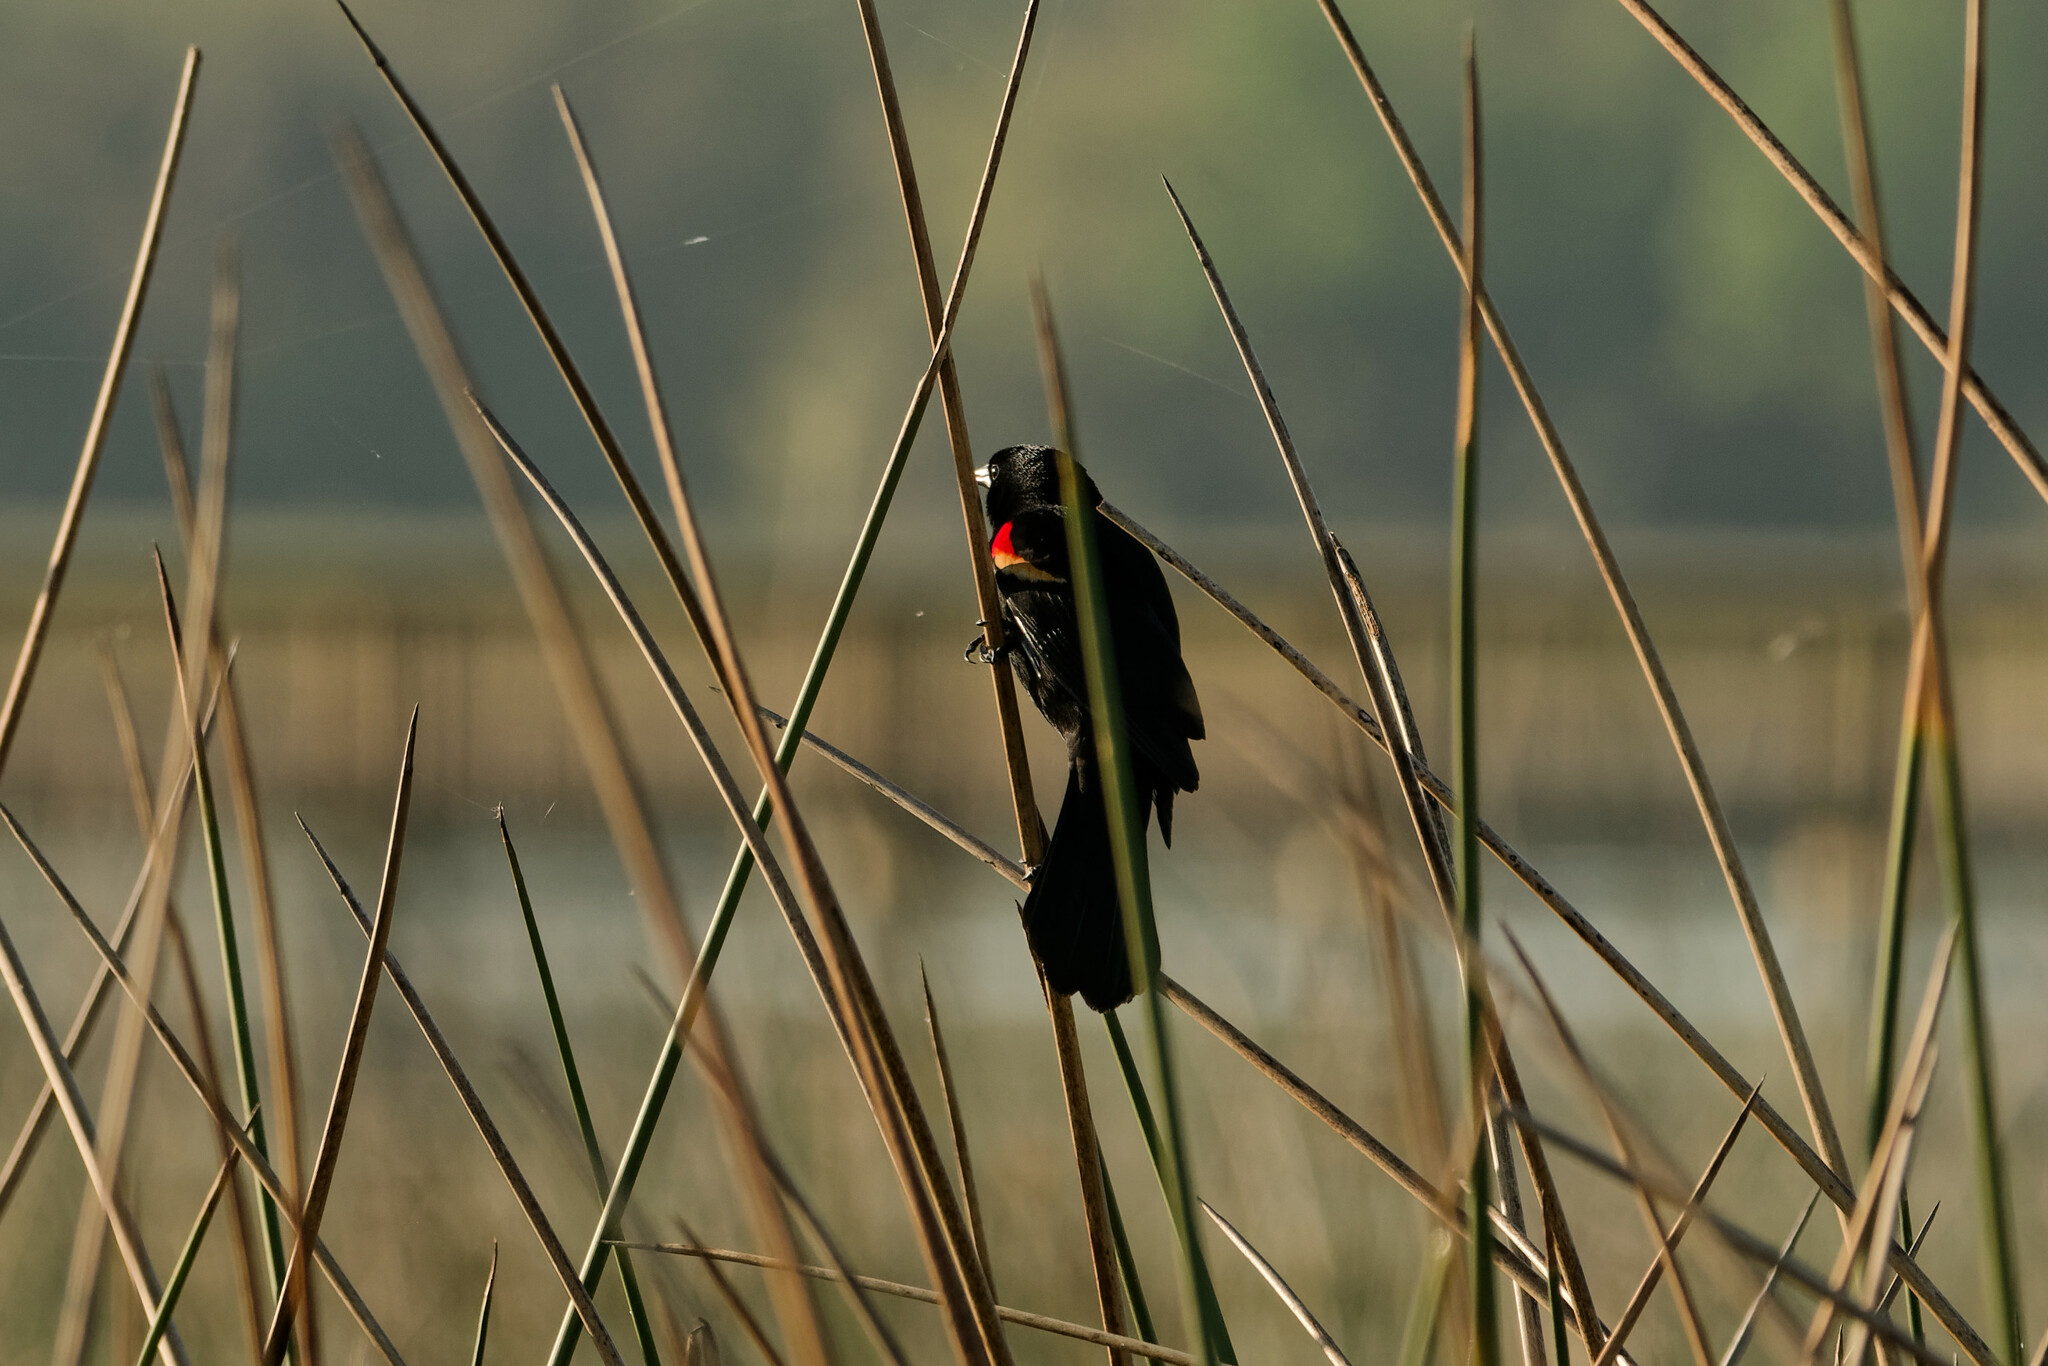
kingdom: Animalia
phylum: Chordata
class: Aves
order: Passeriformes
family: Icteridae
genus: Agelaius
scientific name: Agelaius phoeniceus
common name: Red-winged blackbird
